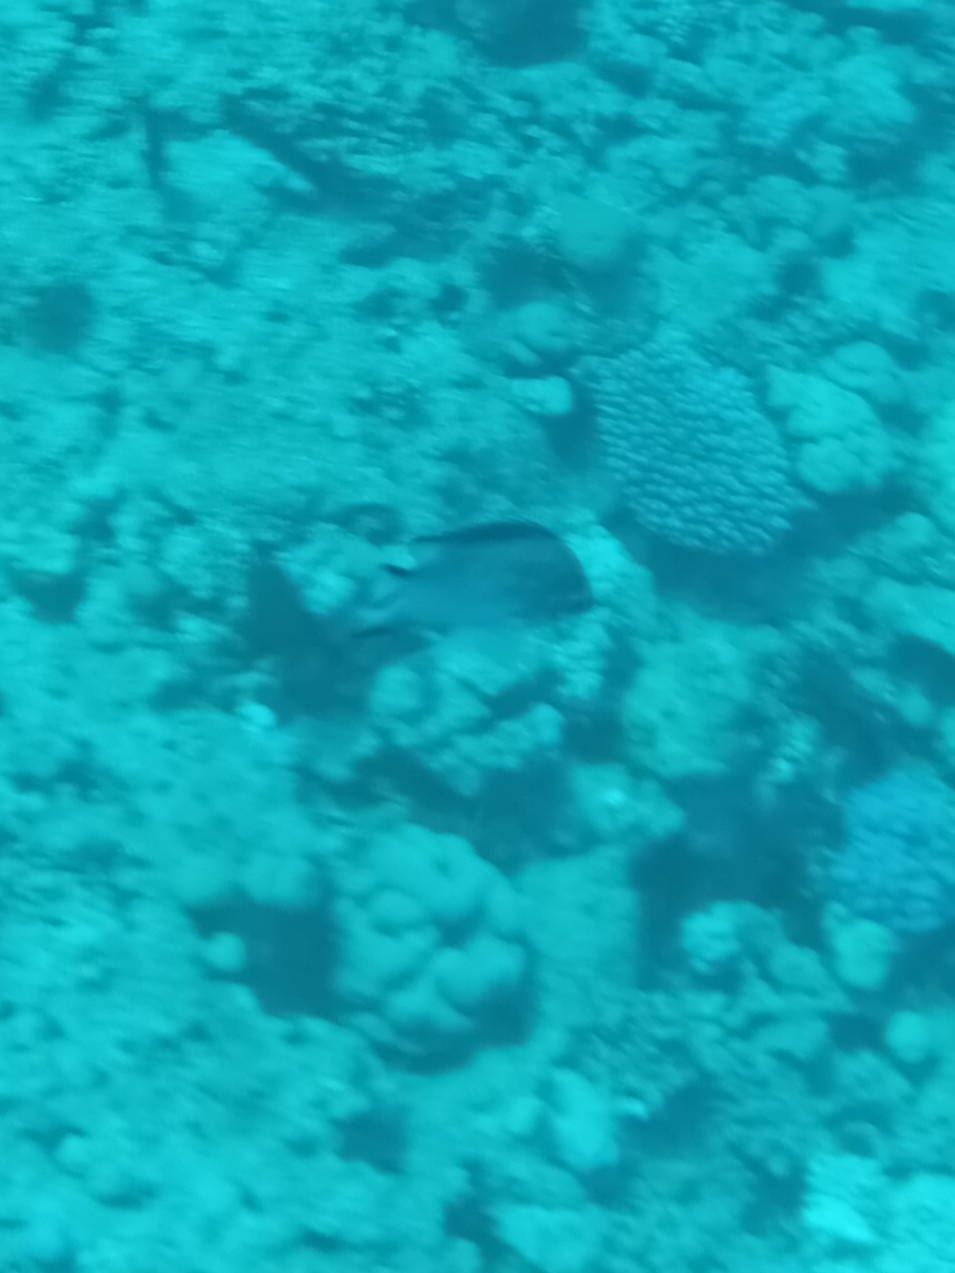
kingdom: Animalia
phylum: Chordata
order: Perciformes
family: Pomacentridae
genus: Amblyglyphidodon
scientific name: Amblyglyphidodon indicus
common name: Maldives damselfish
